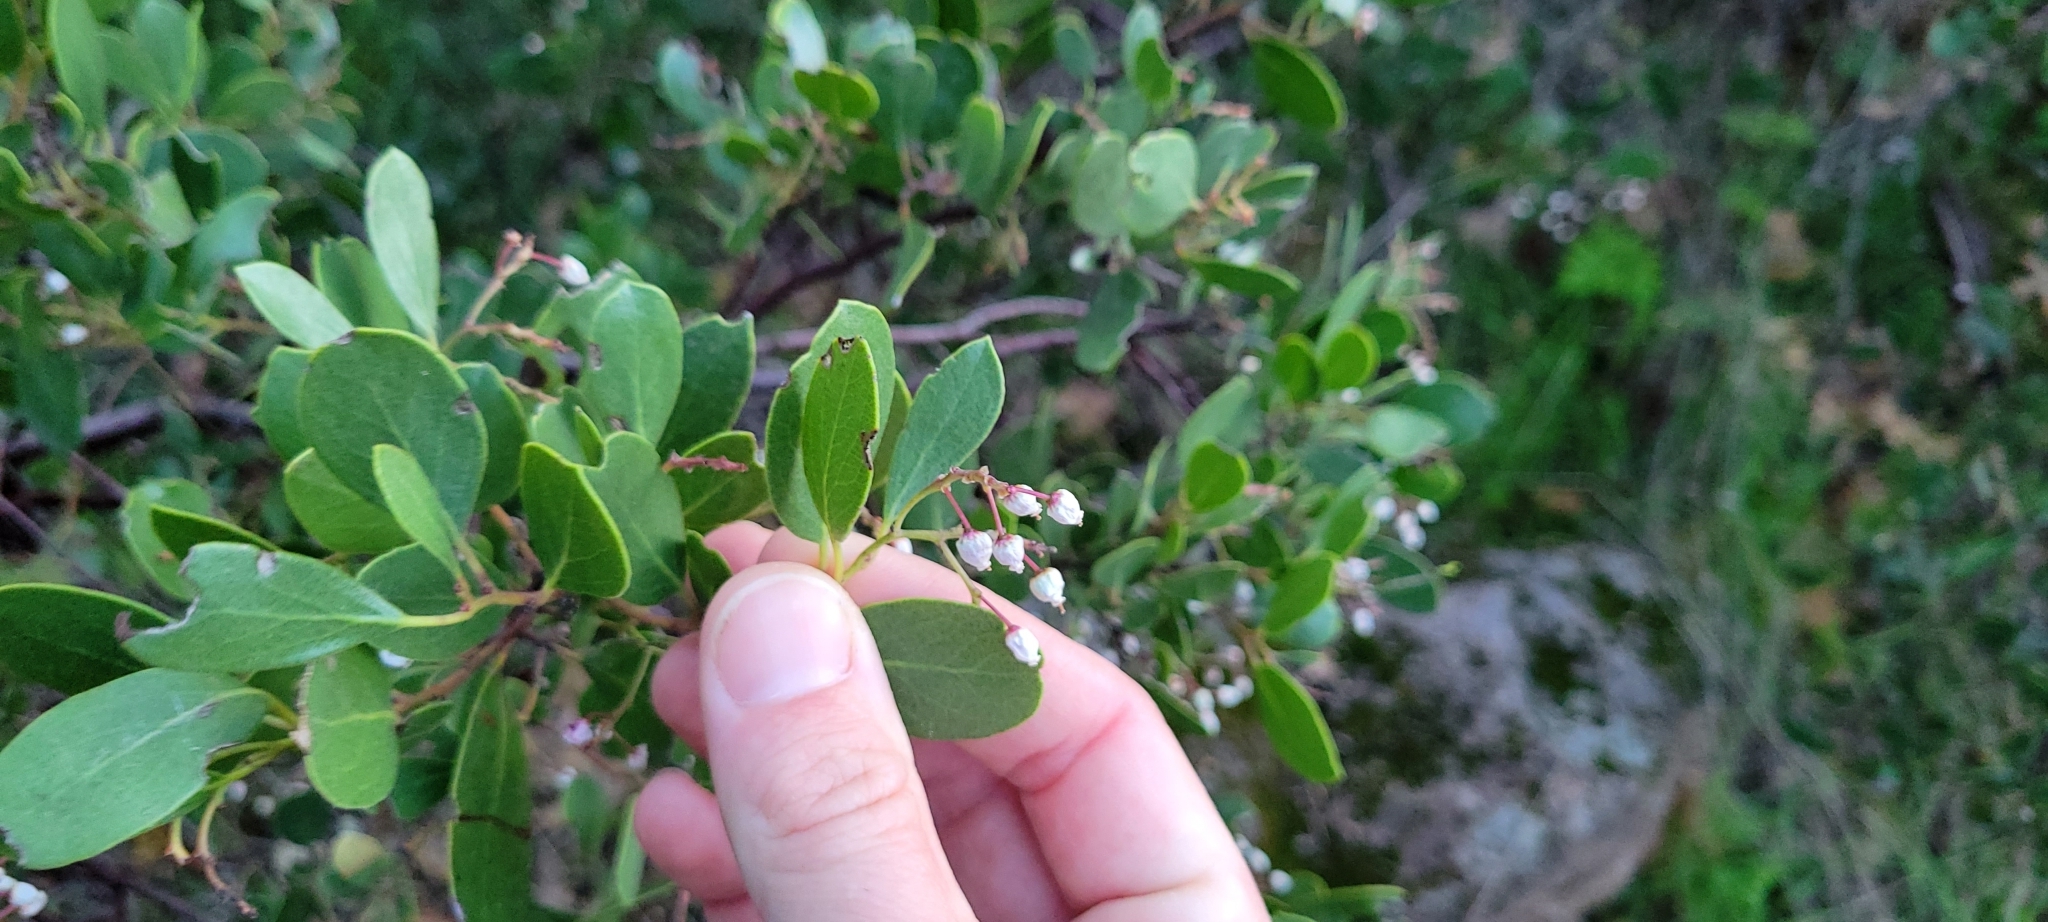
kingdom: Plantae
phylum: Tracheophyta
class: Magnoliopsida
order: Ericales
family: Ericaceae
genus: Arctostaphylos
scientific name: Arctostaphylos stanfordiana
